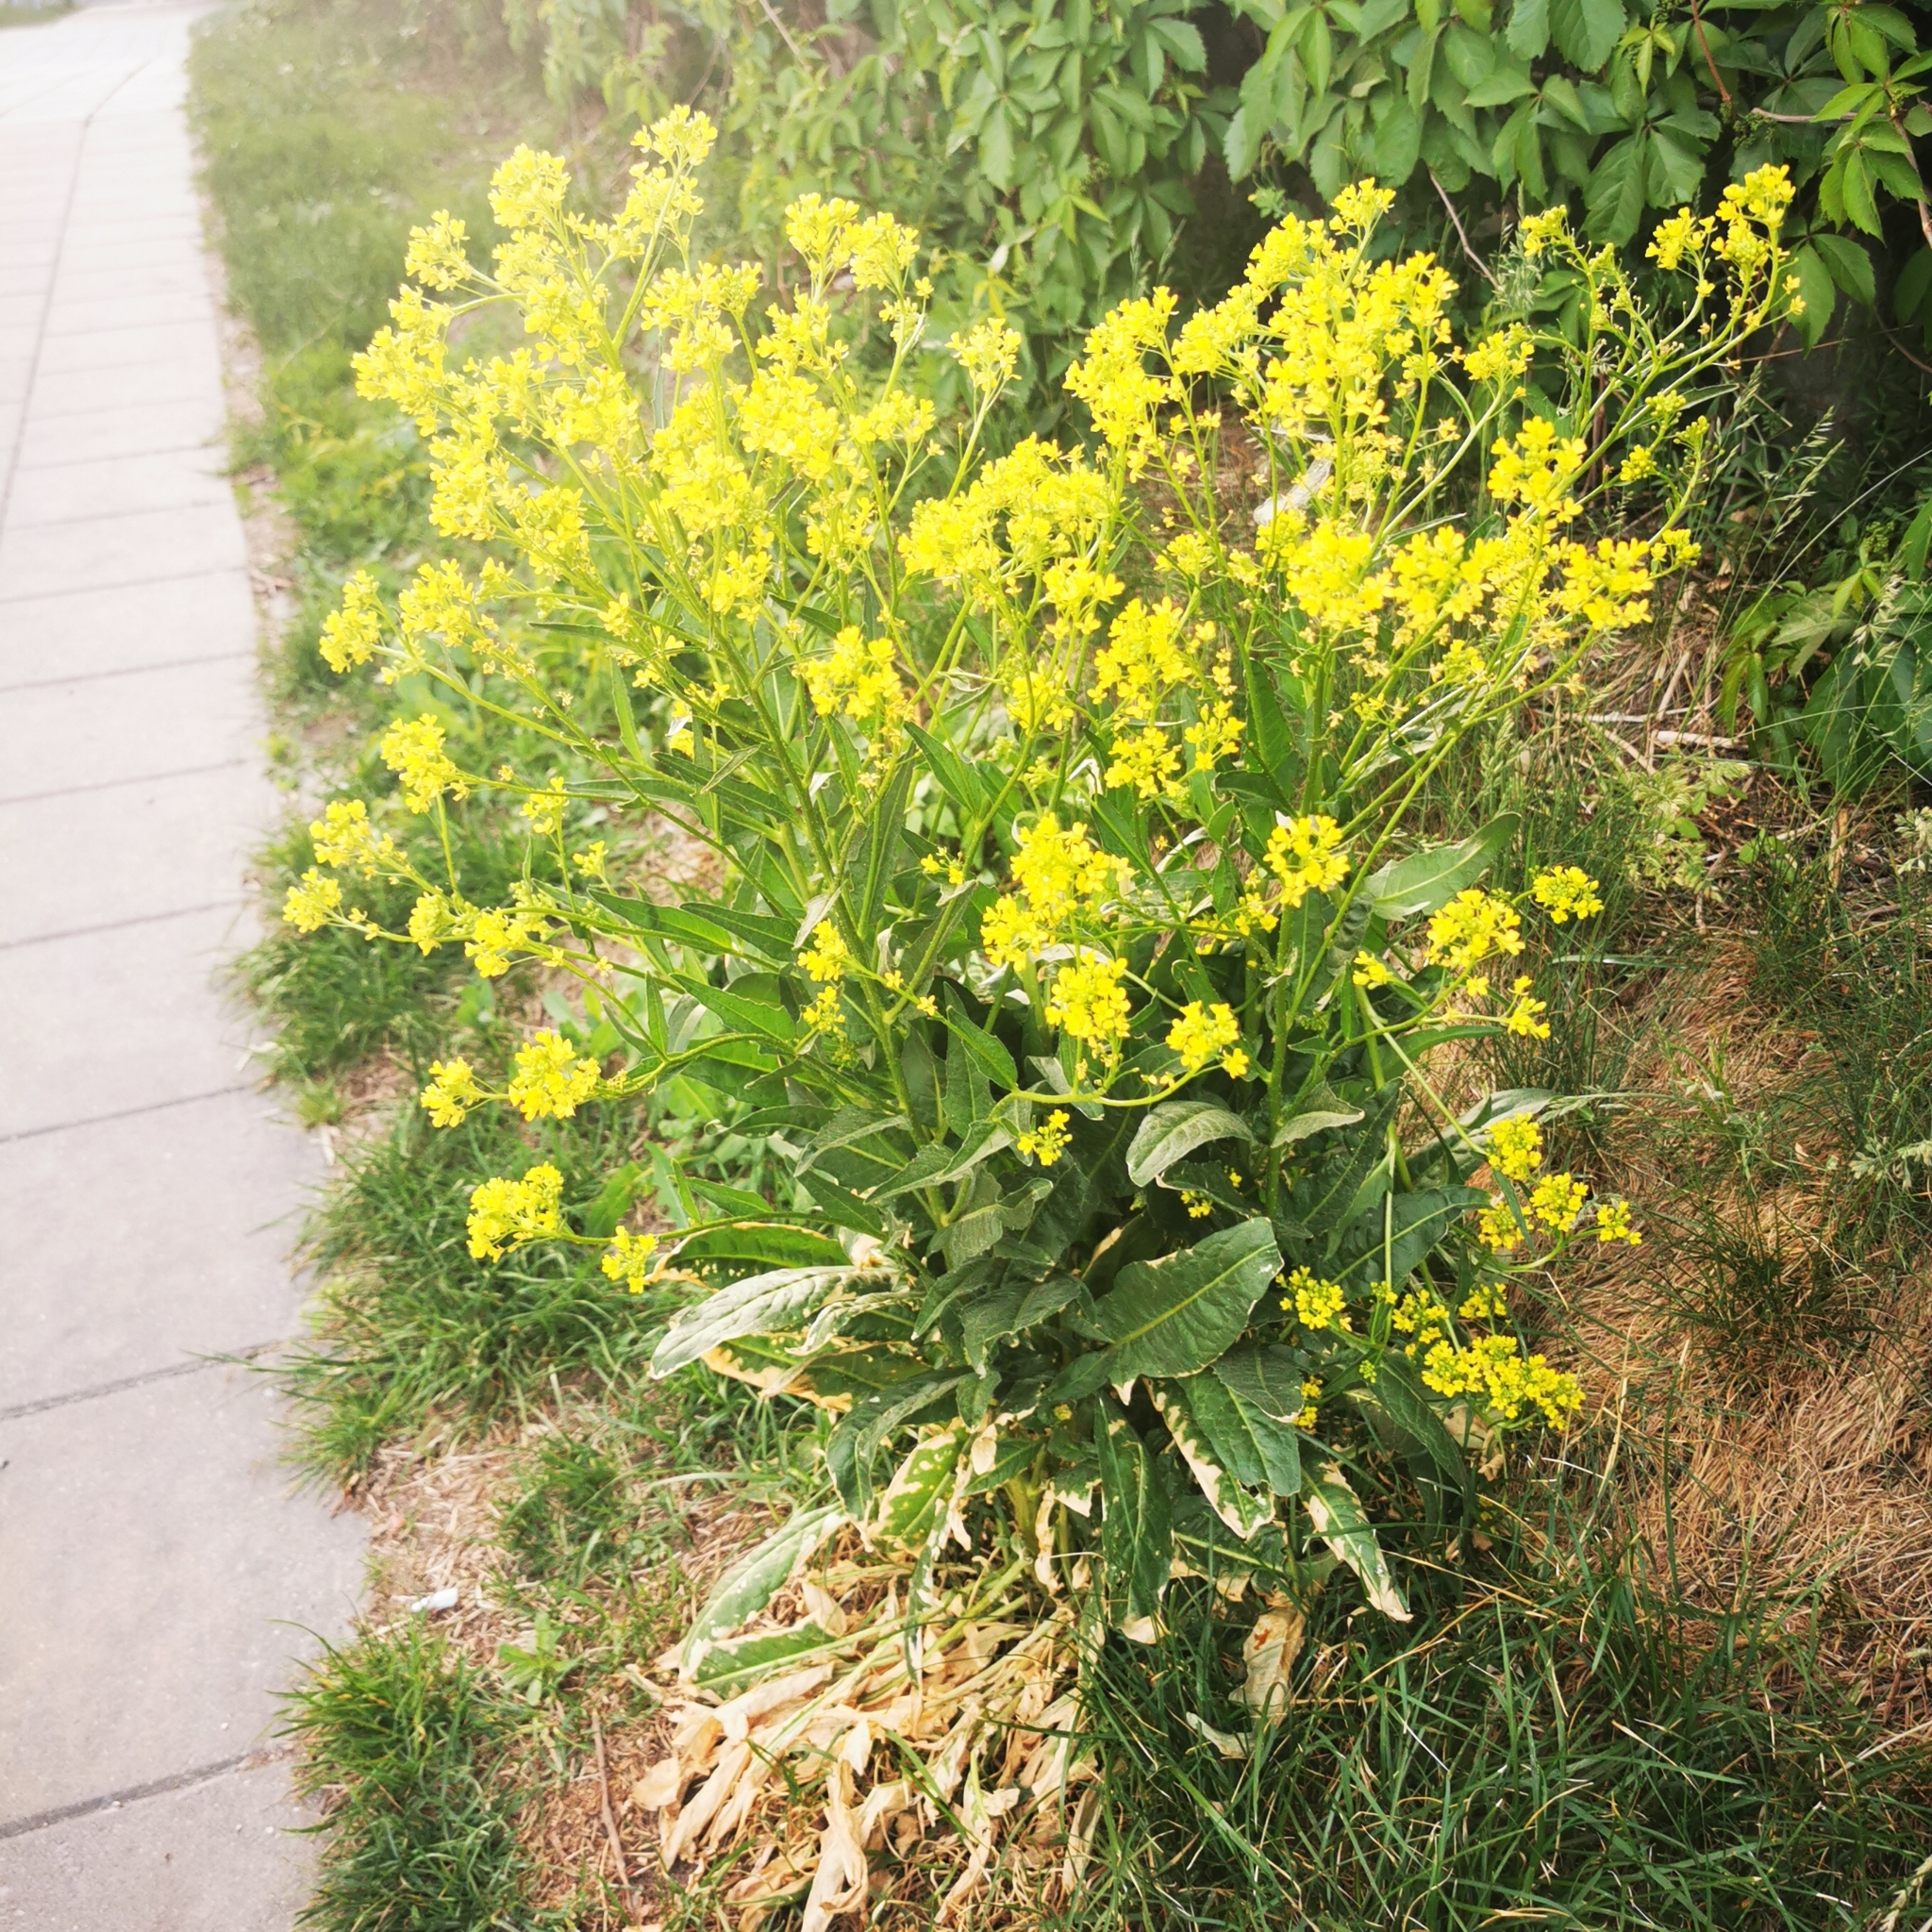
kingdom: Plantae
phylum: Tracheophyta
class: Magnoliopsida
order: Brassicales
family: Brassicaceae
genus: Bunias
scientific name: Bunias orientalis
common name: Warty-cabbage
